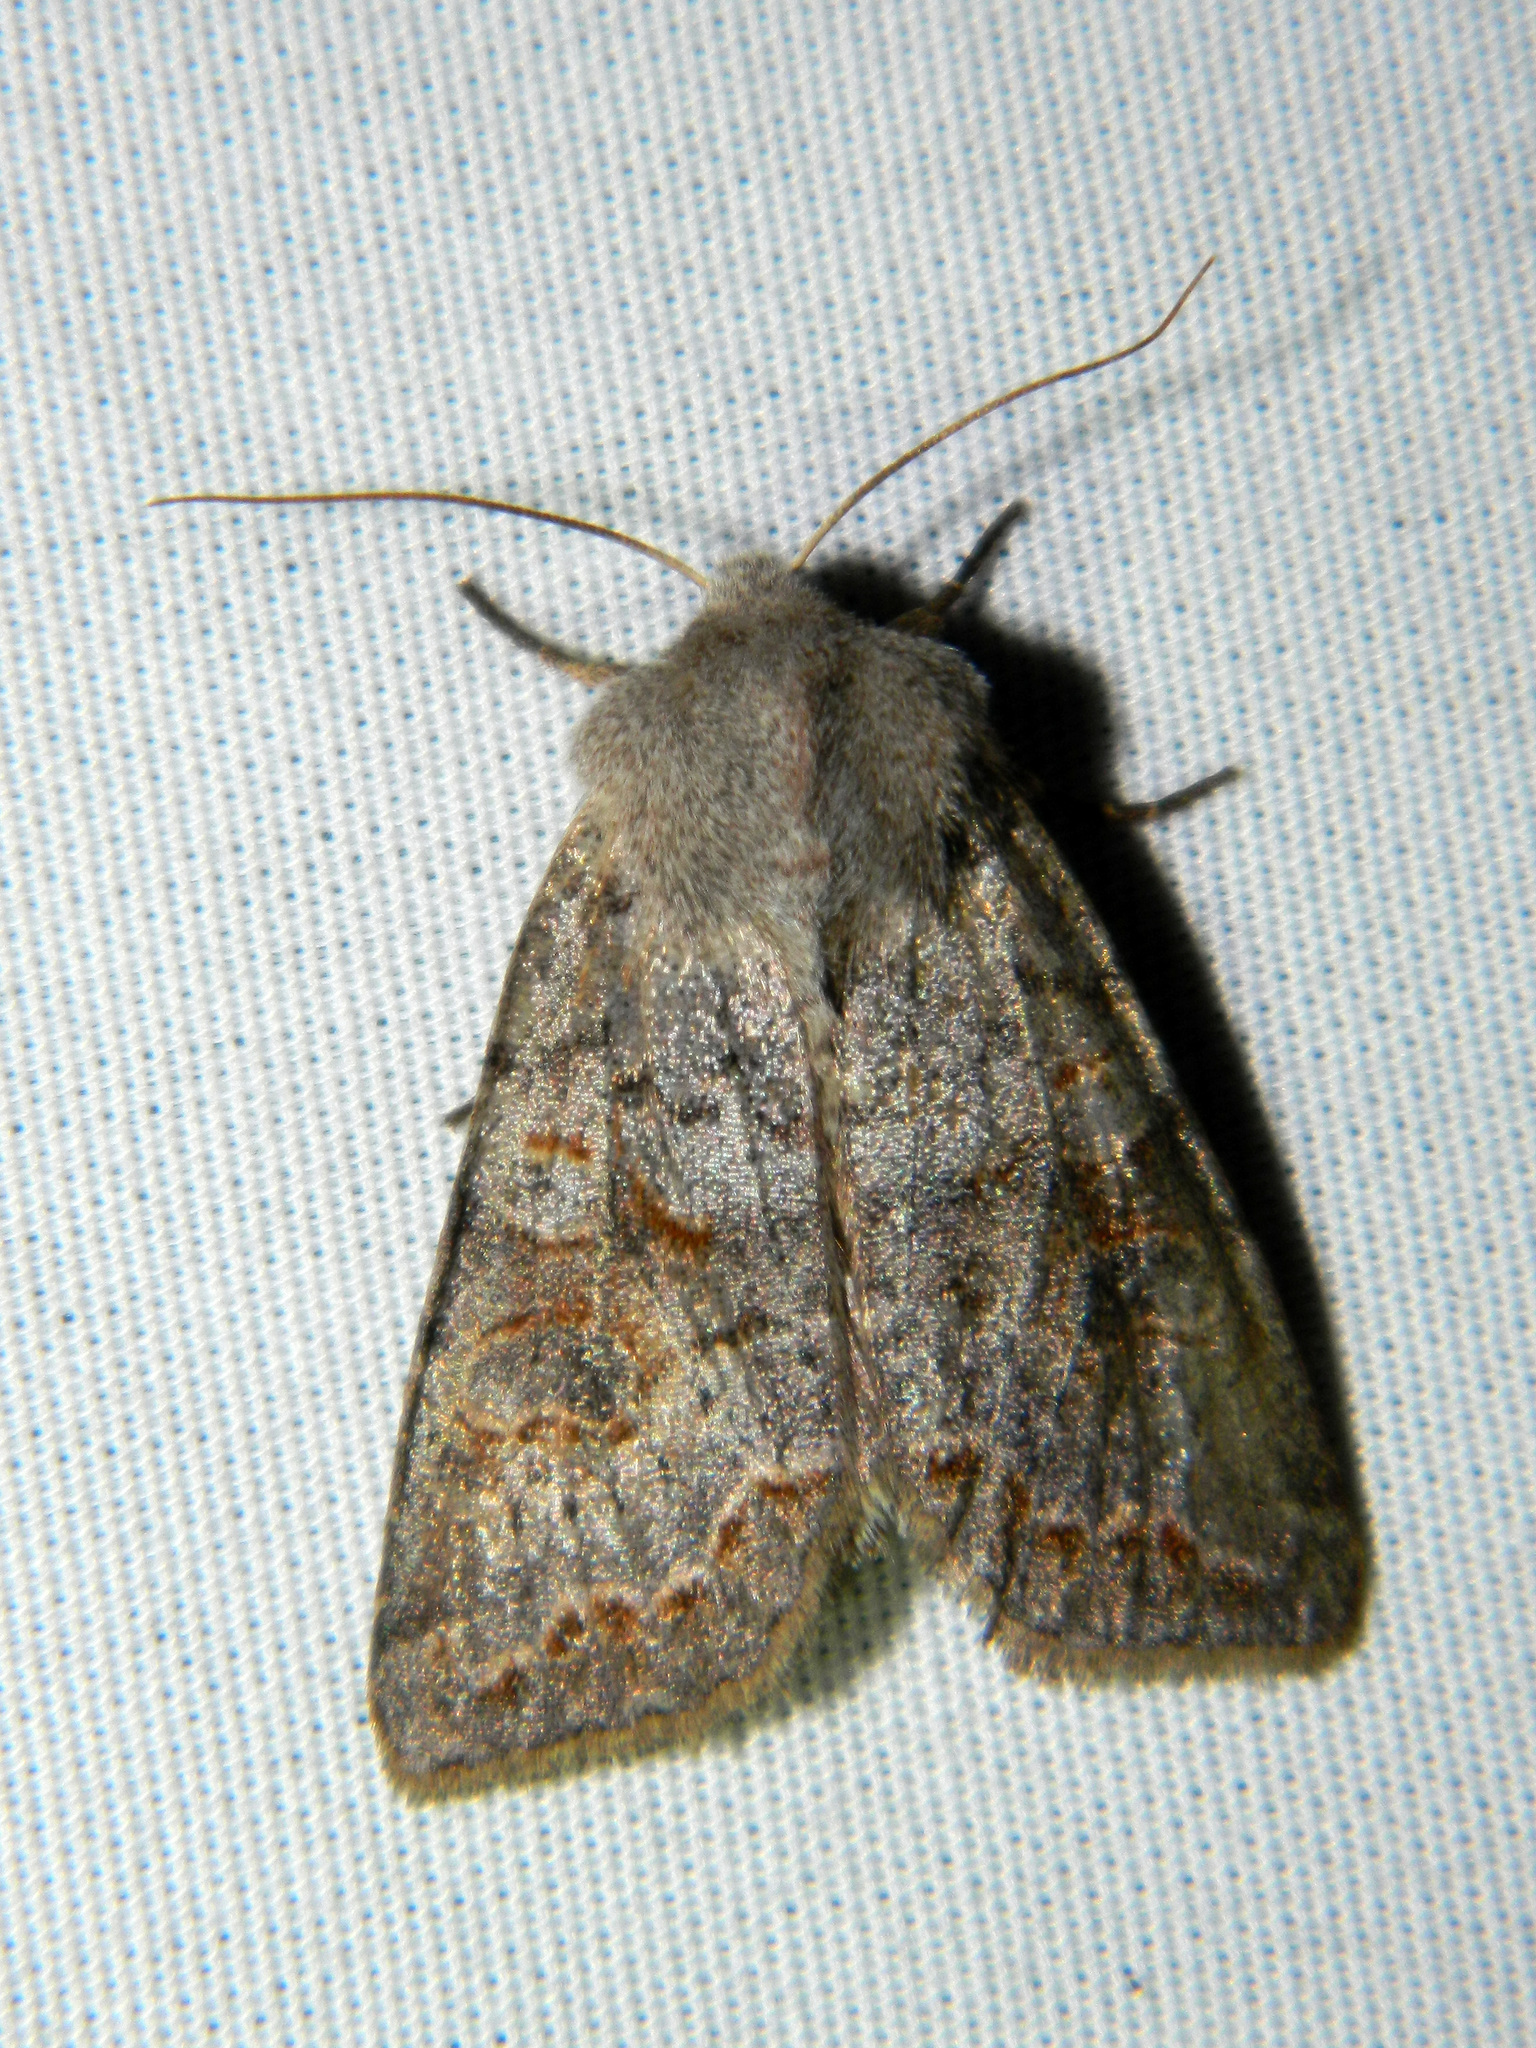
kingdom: Animalia
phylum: Arthropoda
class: Insecta
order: Lepidoptera
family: Noctuidae
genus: Orthosia
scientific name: Orthosia revicta
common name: Rusty whitesided caterpillar
